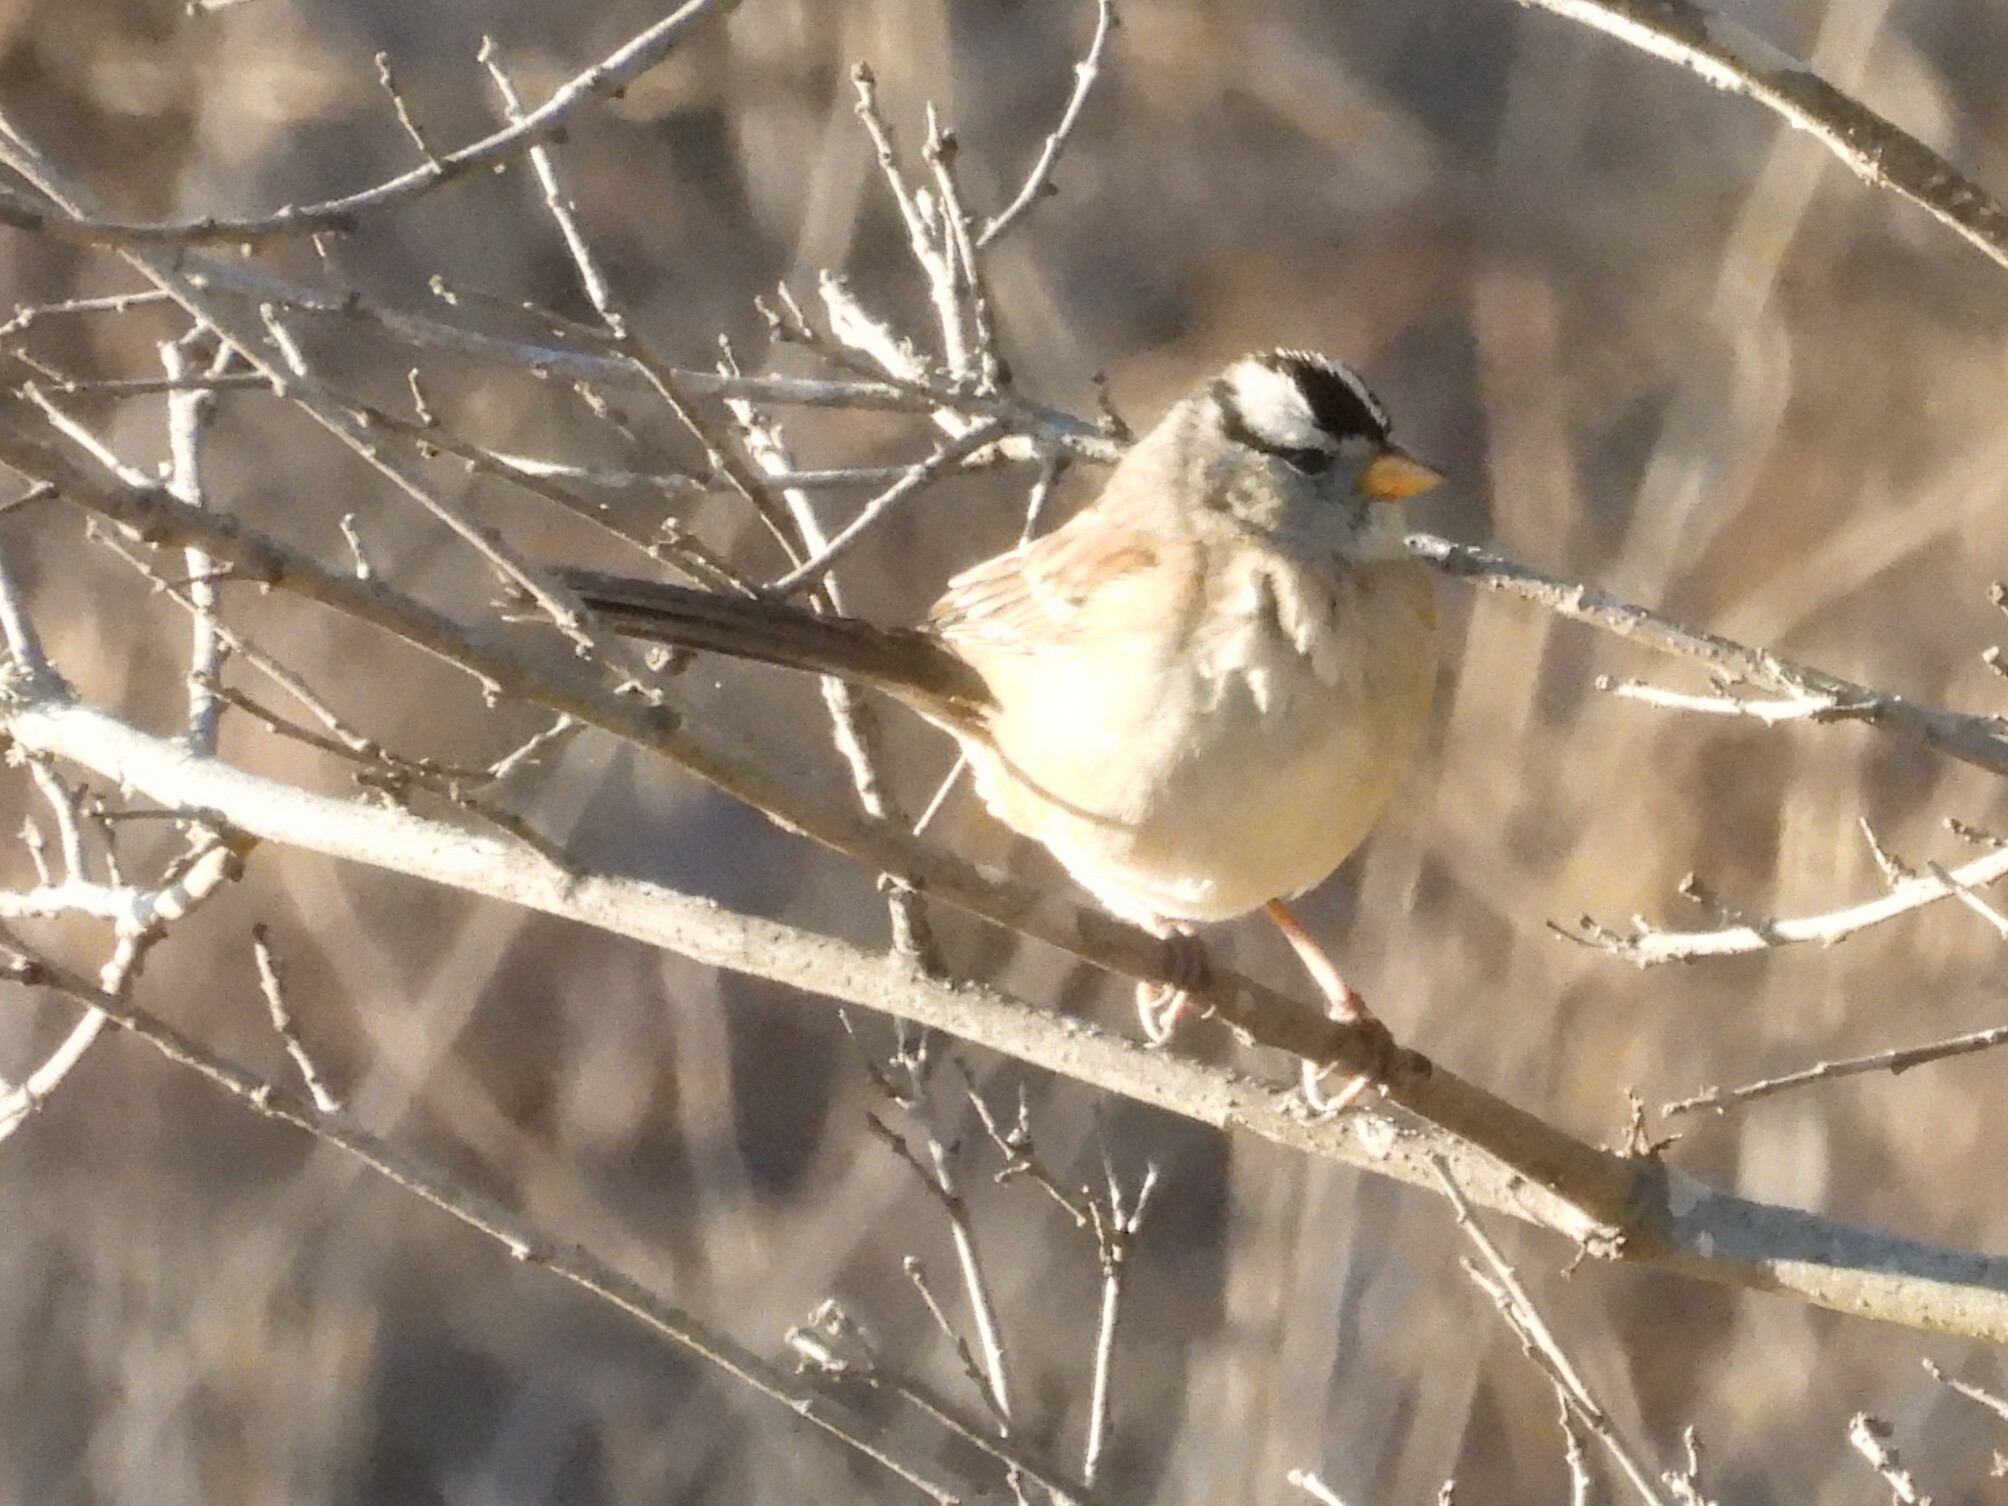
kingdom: Animalia
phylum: Chordata
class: Aves
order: Passeriformes
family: Passerellidae
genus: Zonotrichia
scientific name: Zonotrichia leucophrys
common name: White-crowned sparrow
